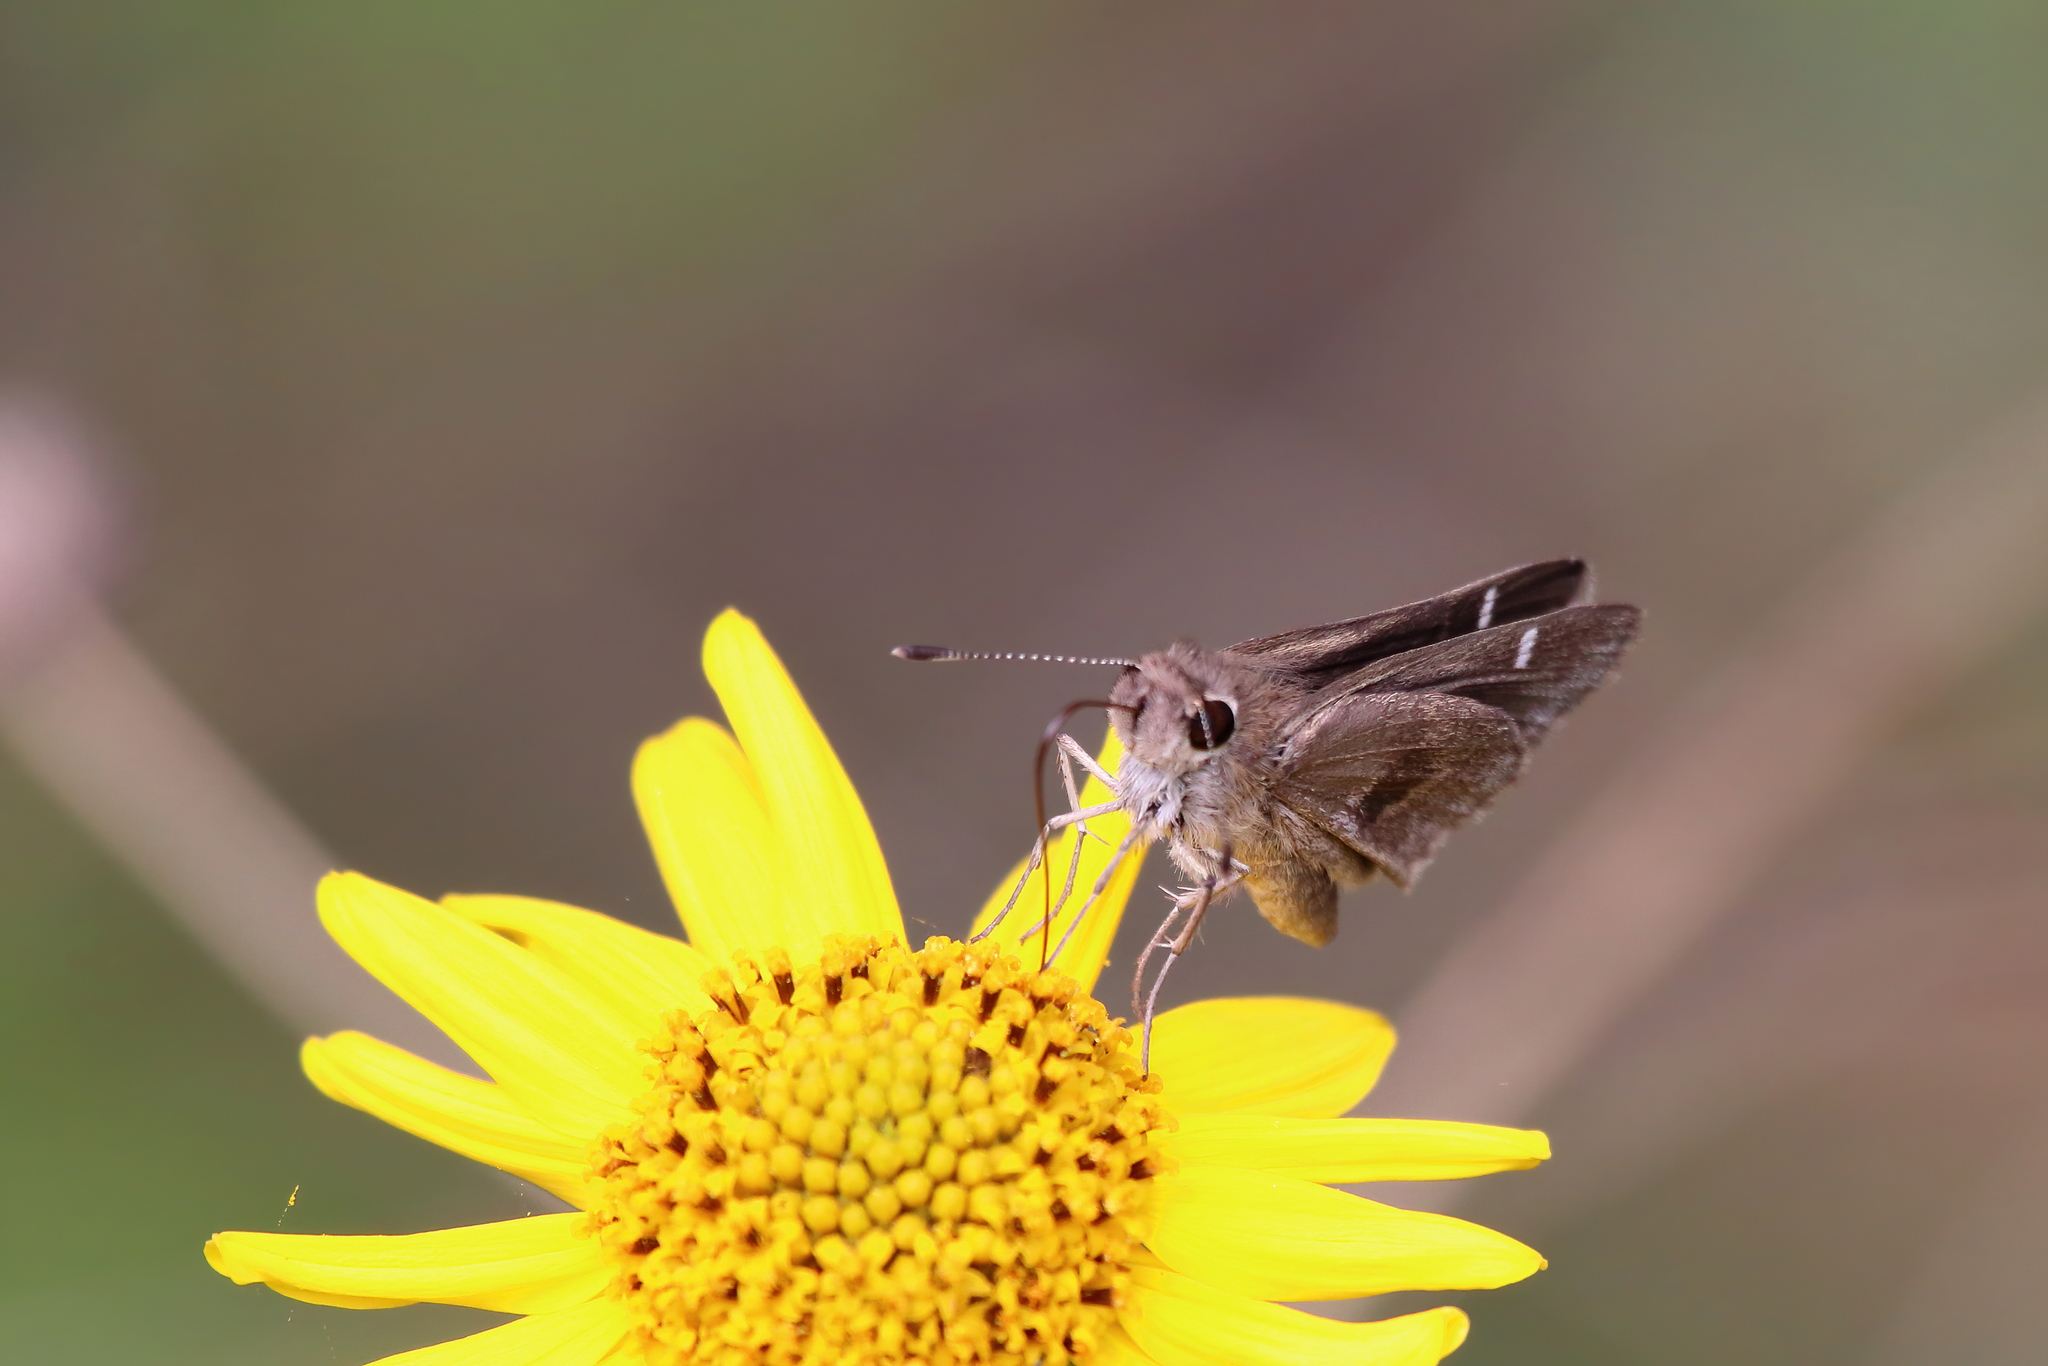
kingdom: Animalia
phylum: Arthropoda
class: Insecta
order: Lepidoptera
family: Hesperiidae
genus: Lerodea
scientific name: Lerodea arabus
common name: Violet-clouded skipper
